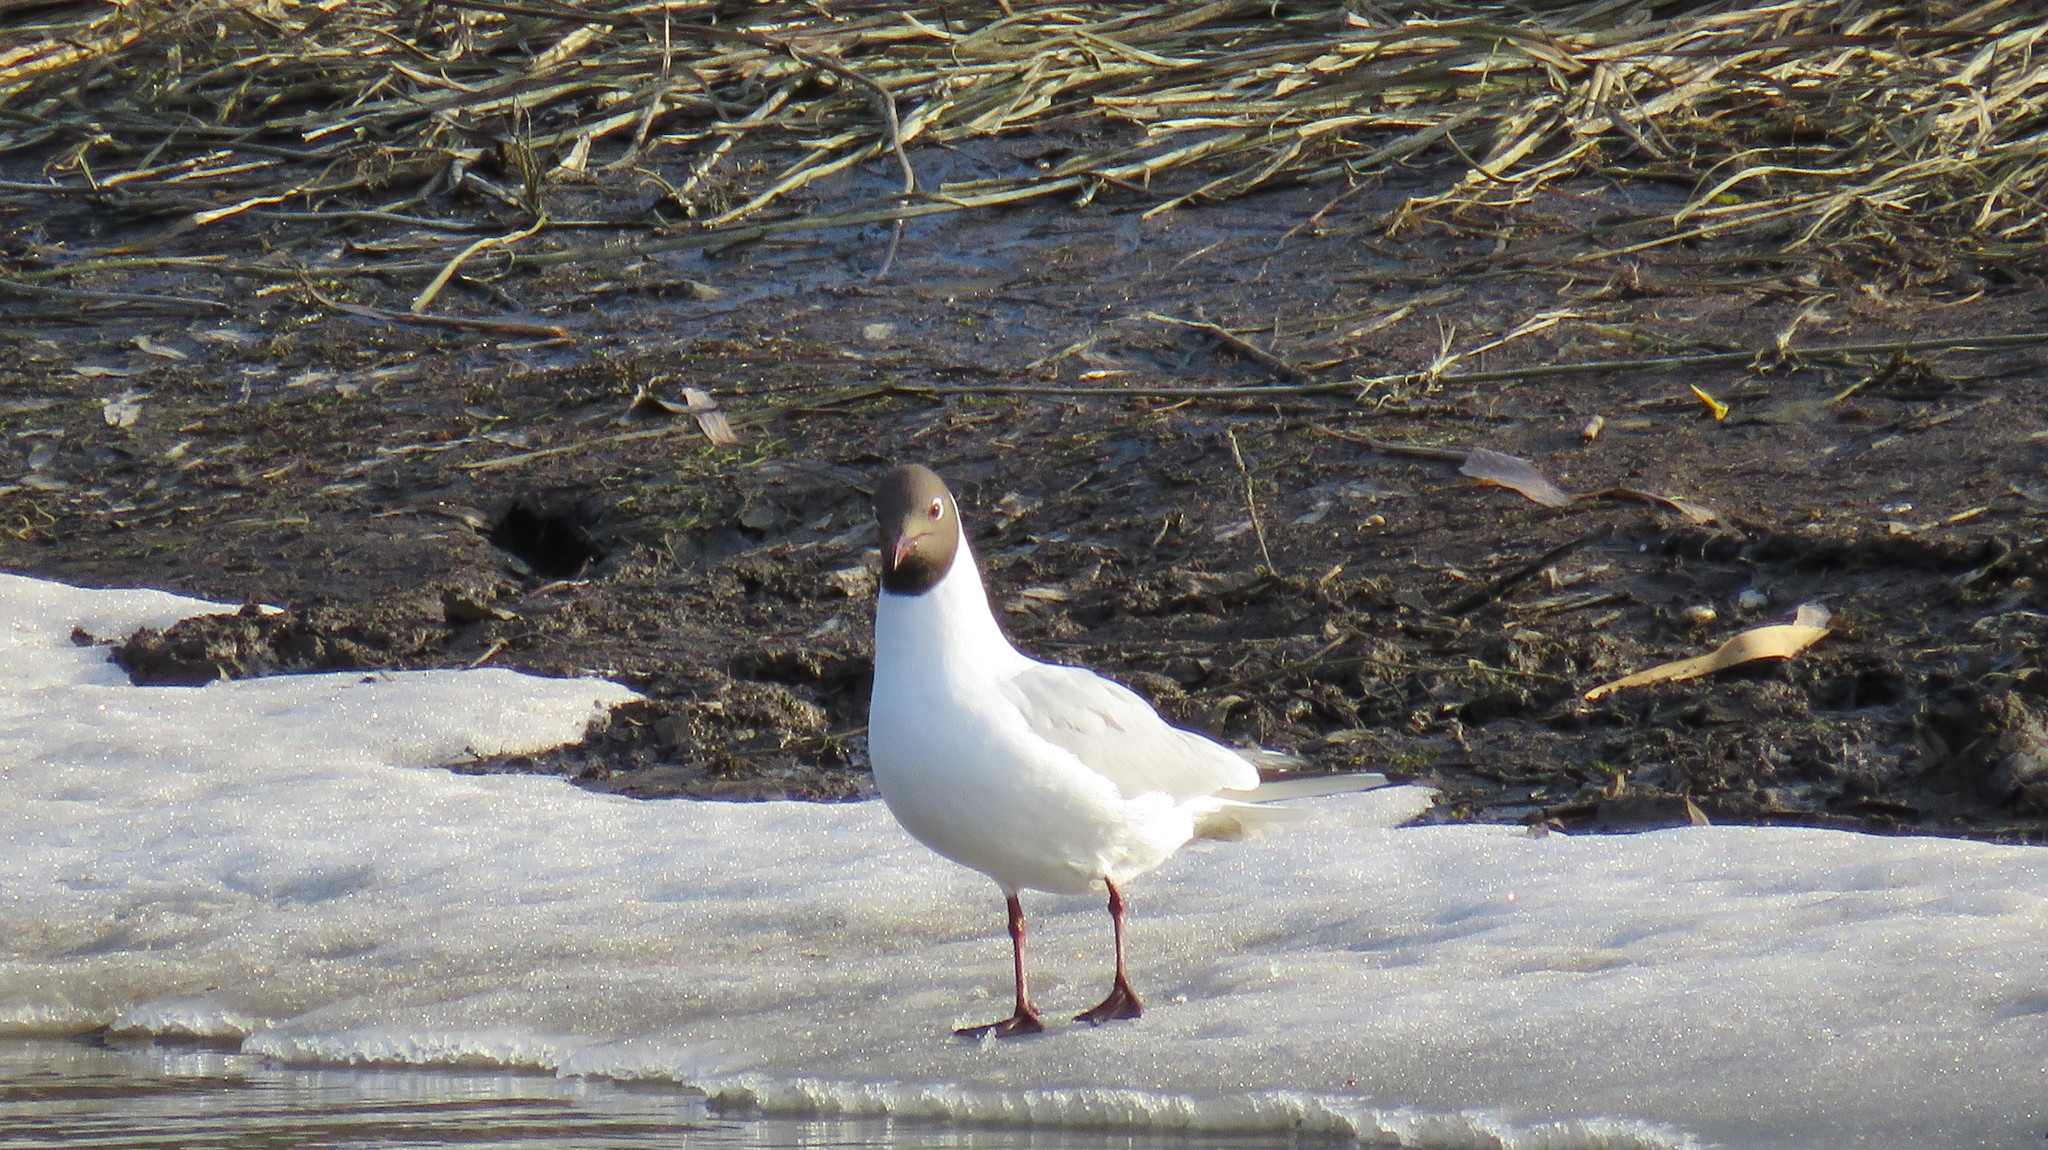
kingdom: Animalia
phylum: Chordata
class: Aves
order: Charadriiformes
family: Laridae
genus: Chroicocephalus
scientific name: Chroicocephalus ridibundus
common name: Black-headed gull
